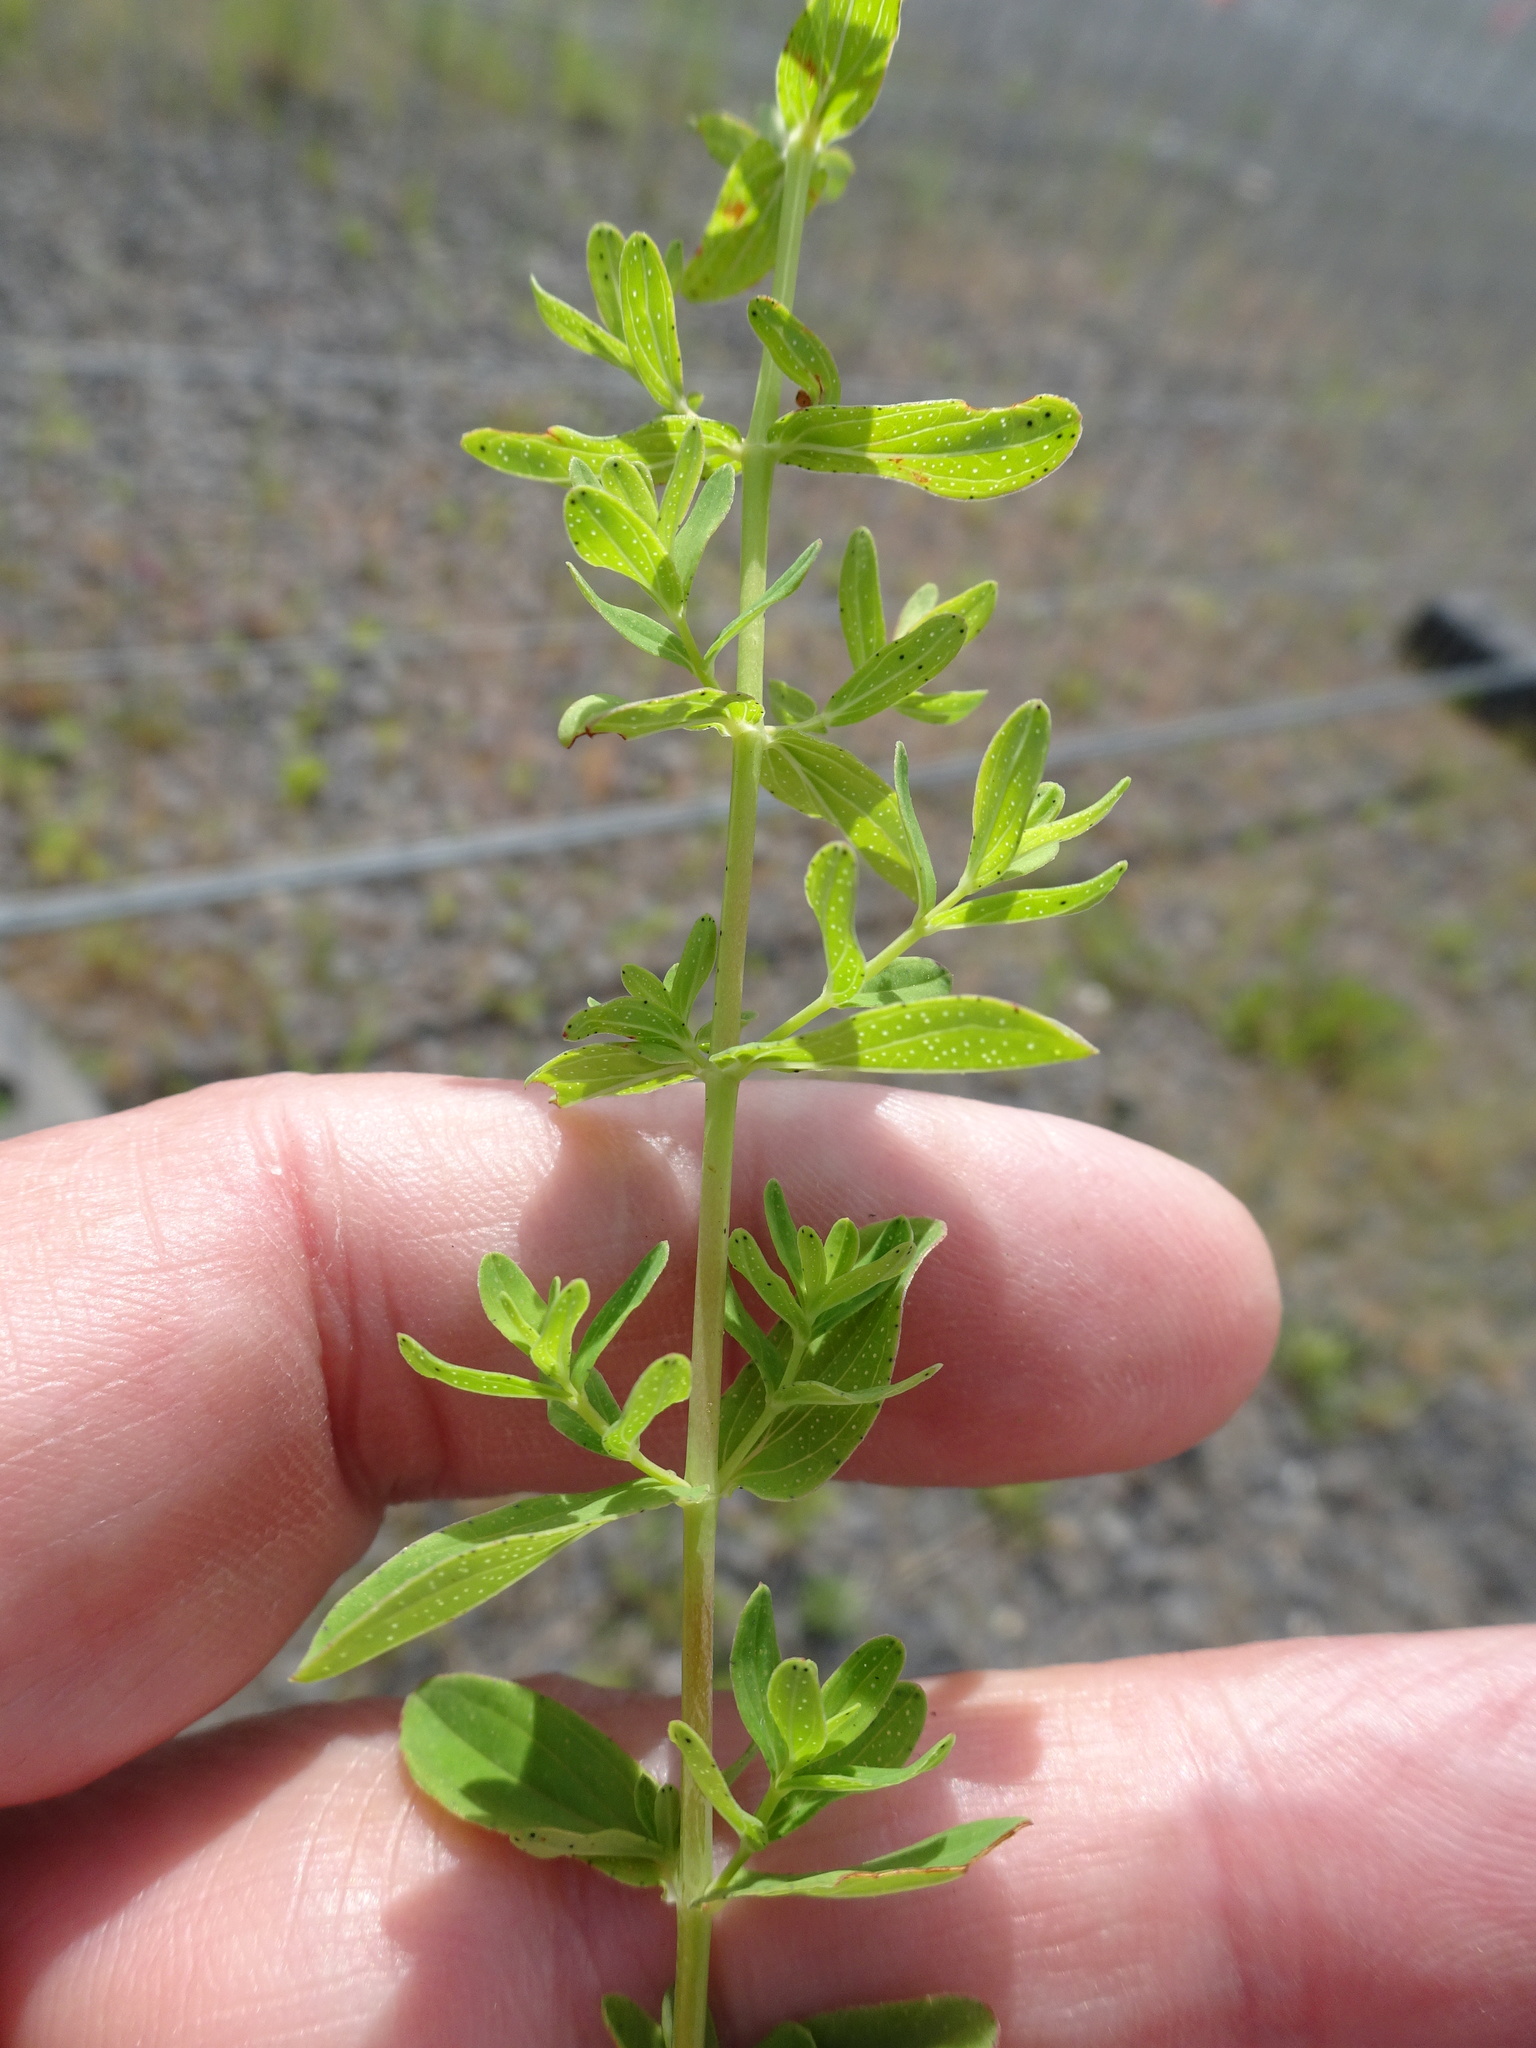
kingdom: Plantae
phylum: Tracheophyta
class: Magnoliopsida
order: Malpighiales
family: Hypericaceae
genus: Hypericum
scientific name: Hypericum perforatum
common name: Common st. johnswort
